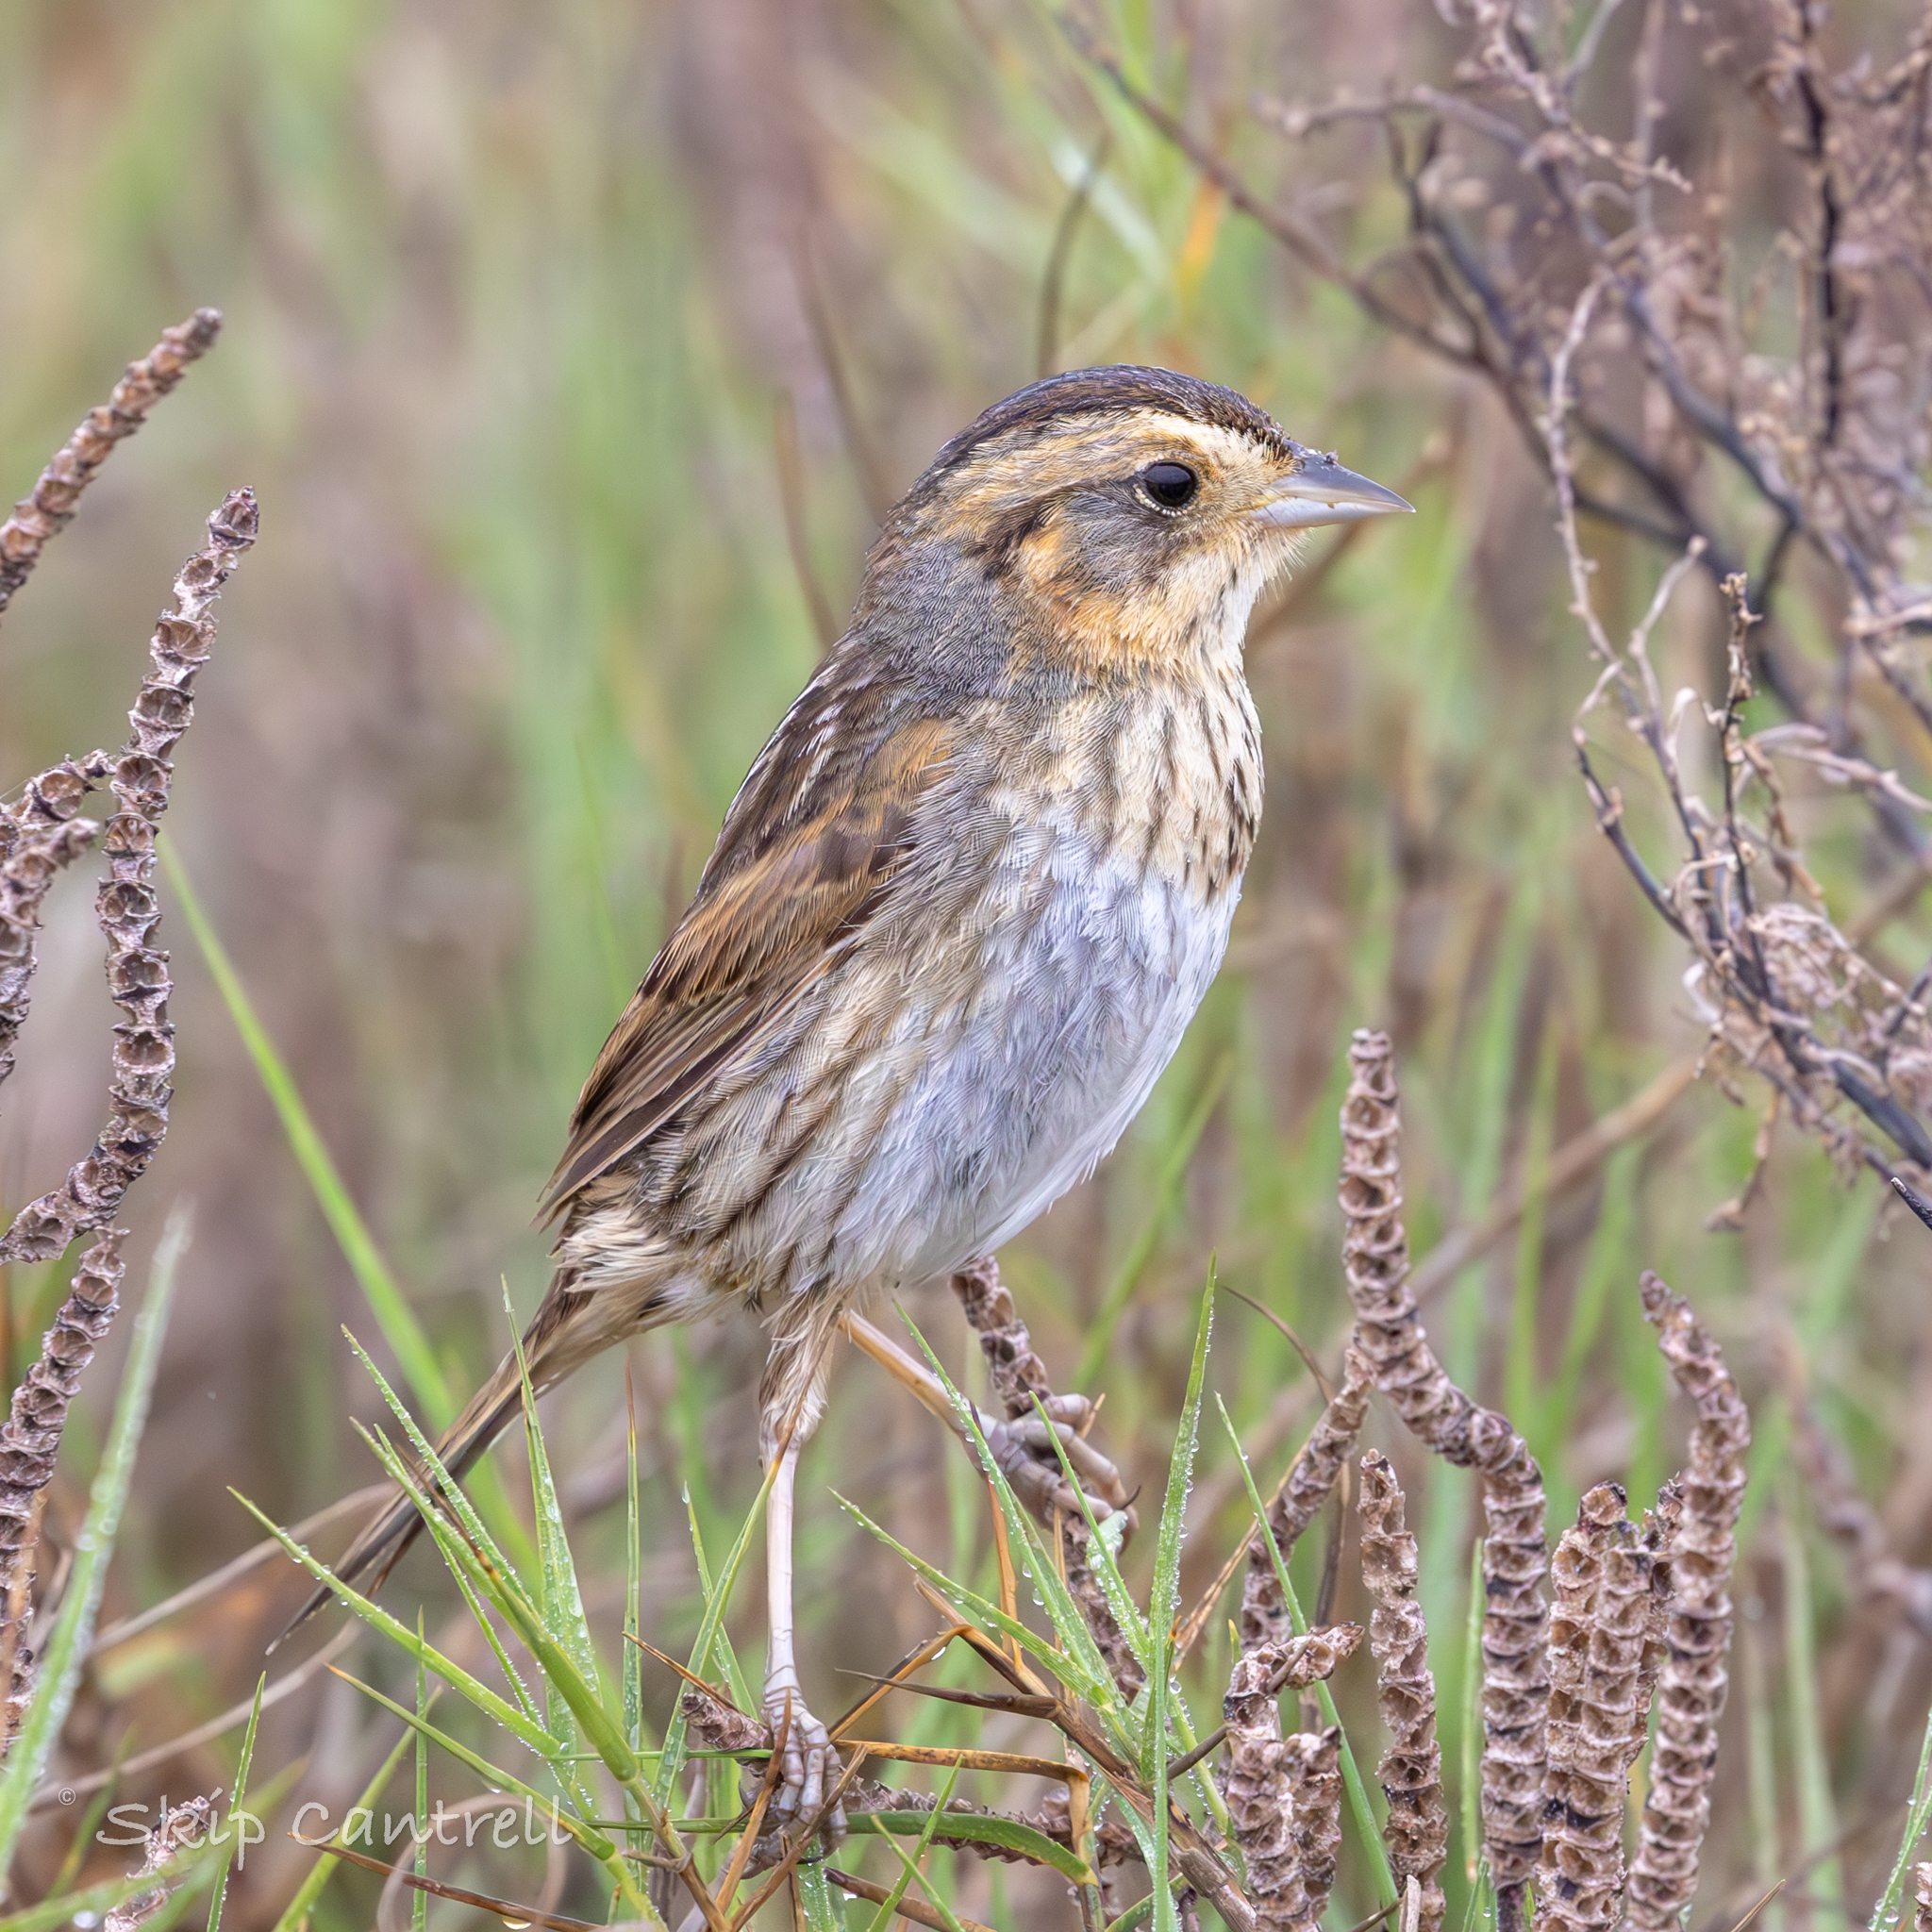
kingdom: Animalia
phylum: Chordata
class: Aves
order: Passeriformes
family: Passerellidae
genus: Ammospiza
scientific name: Ammospiza nelsoni
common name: Nelson's sparrow
